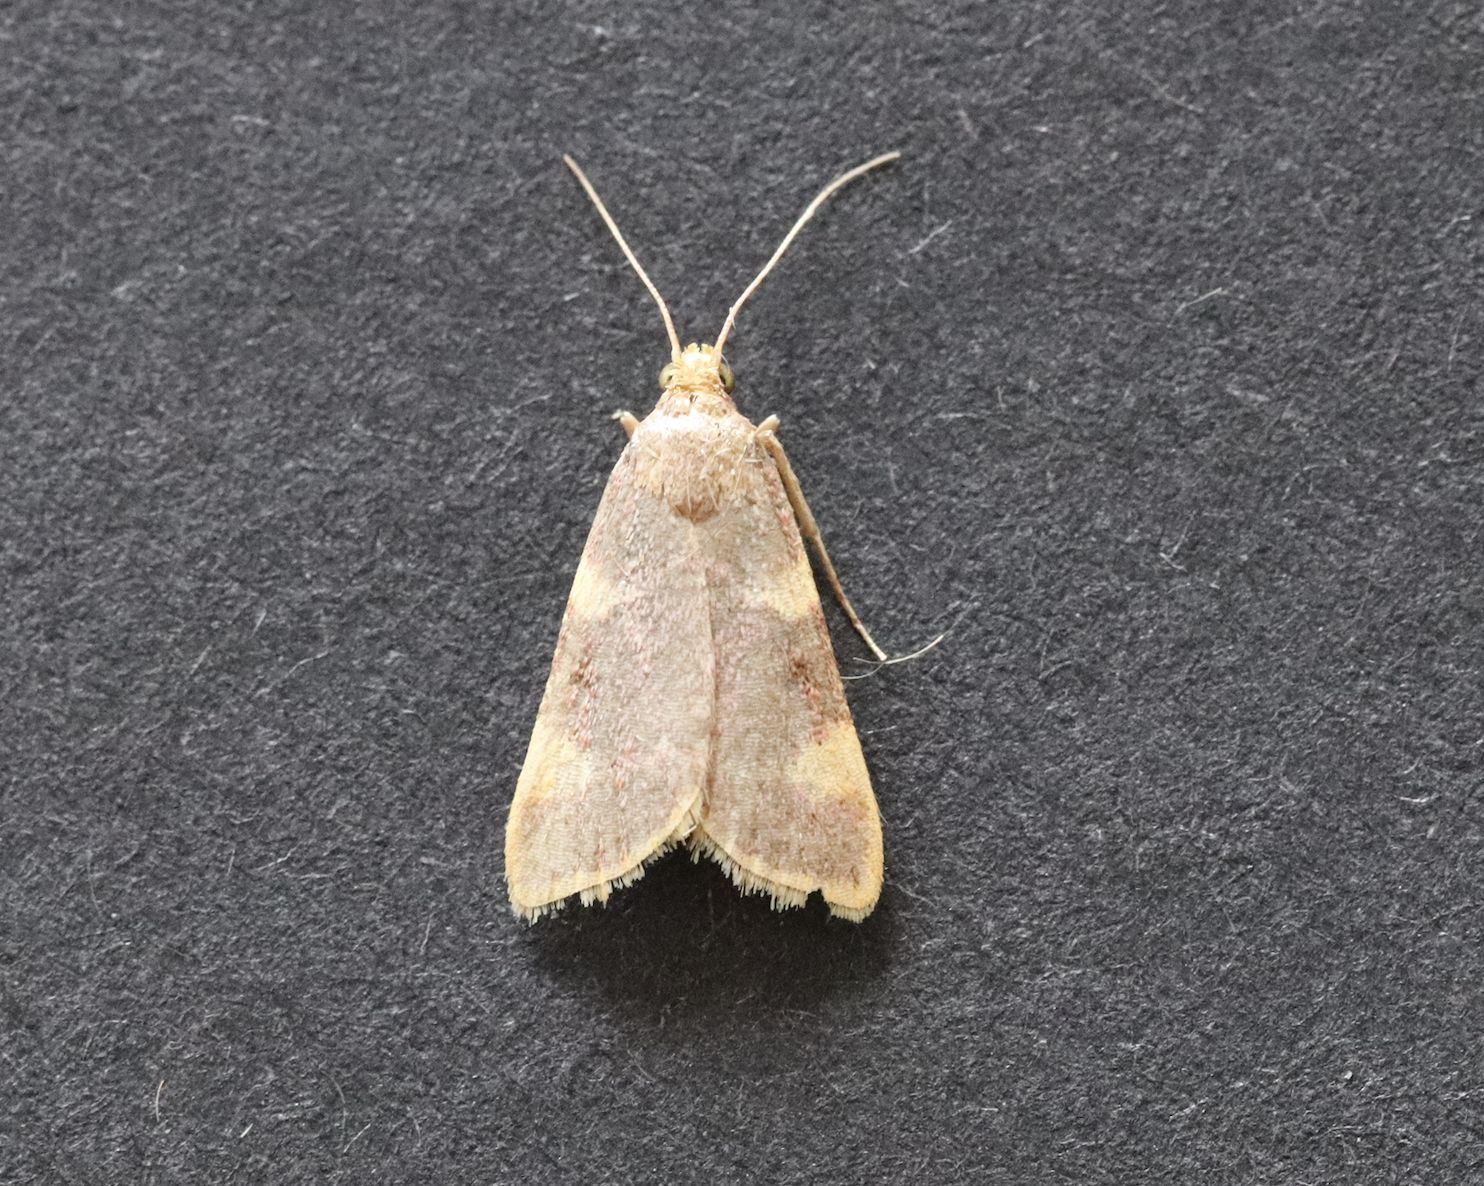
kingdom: Animalia
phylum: Arthropoda
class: Insecta
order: Lepidoptera
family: Pyralidae
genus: Hypsopygia
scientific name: Hypsopygia costalis
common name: Gold triangle
